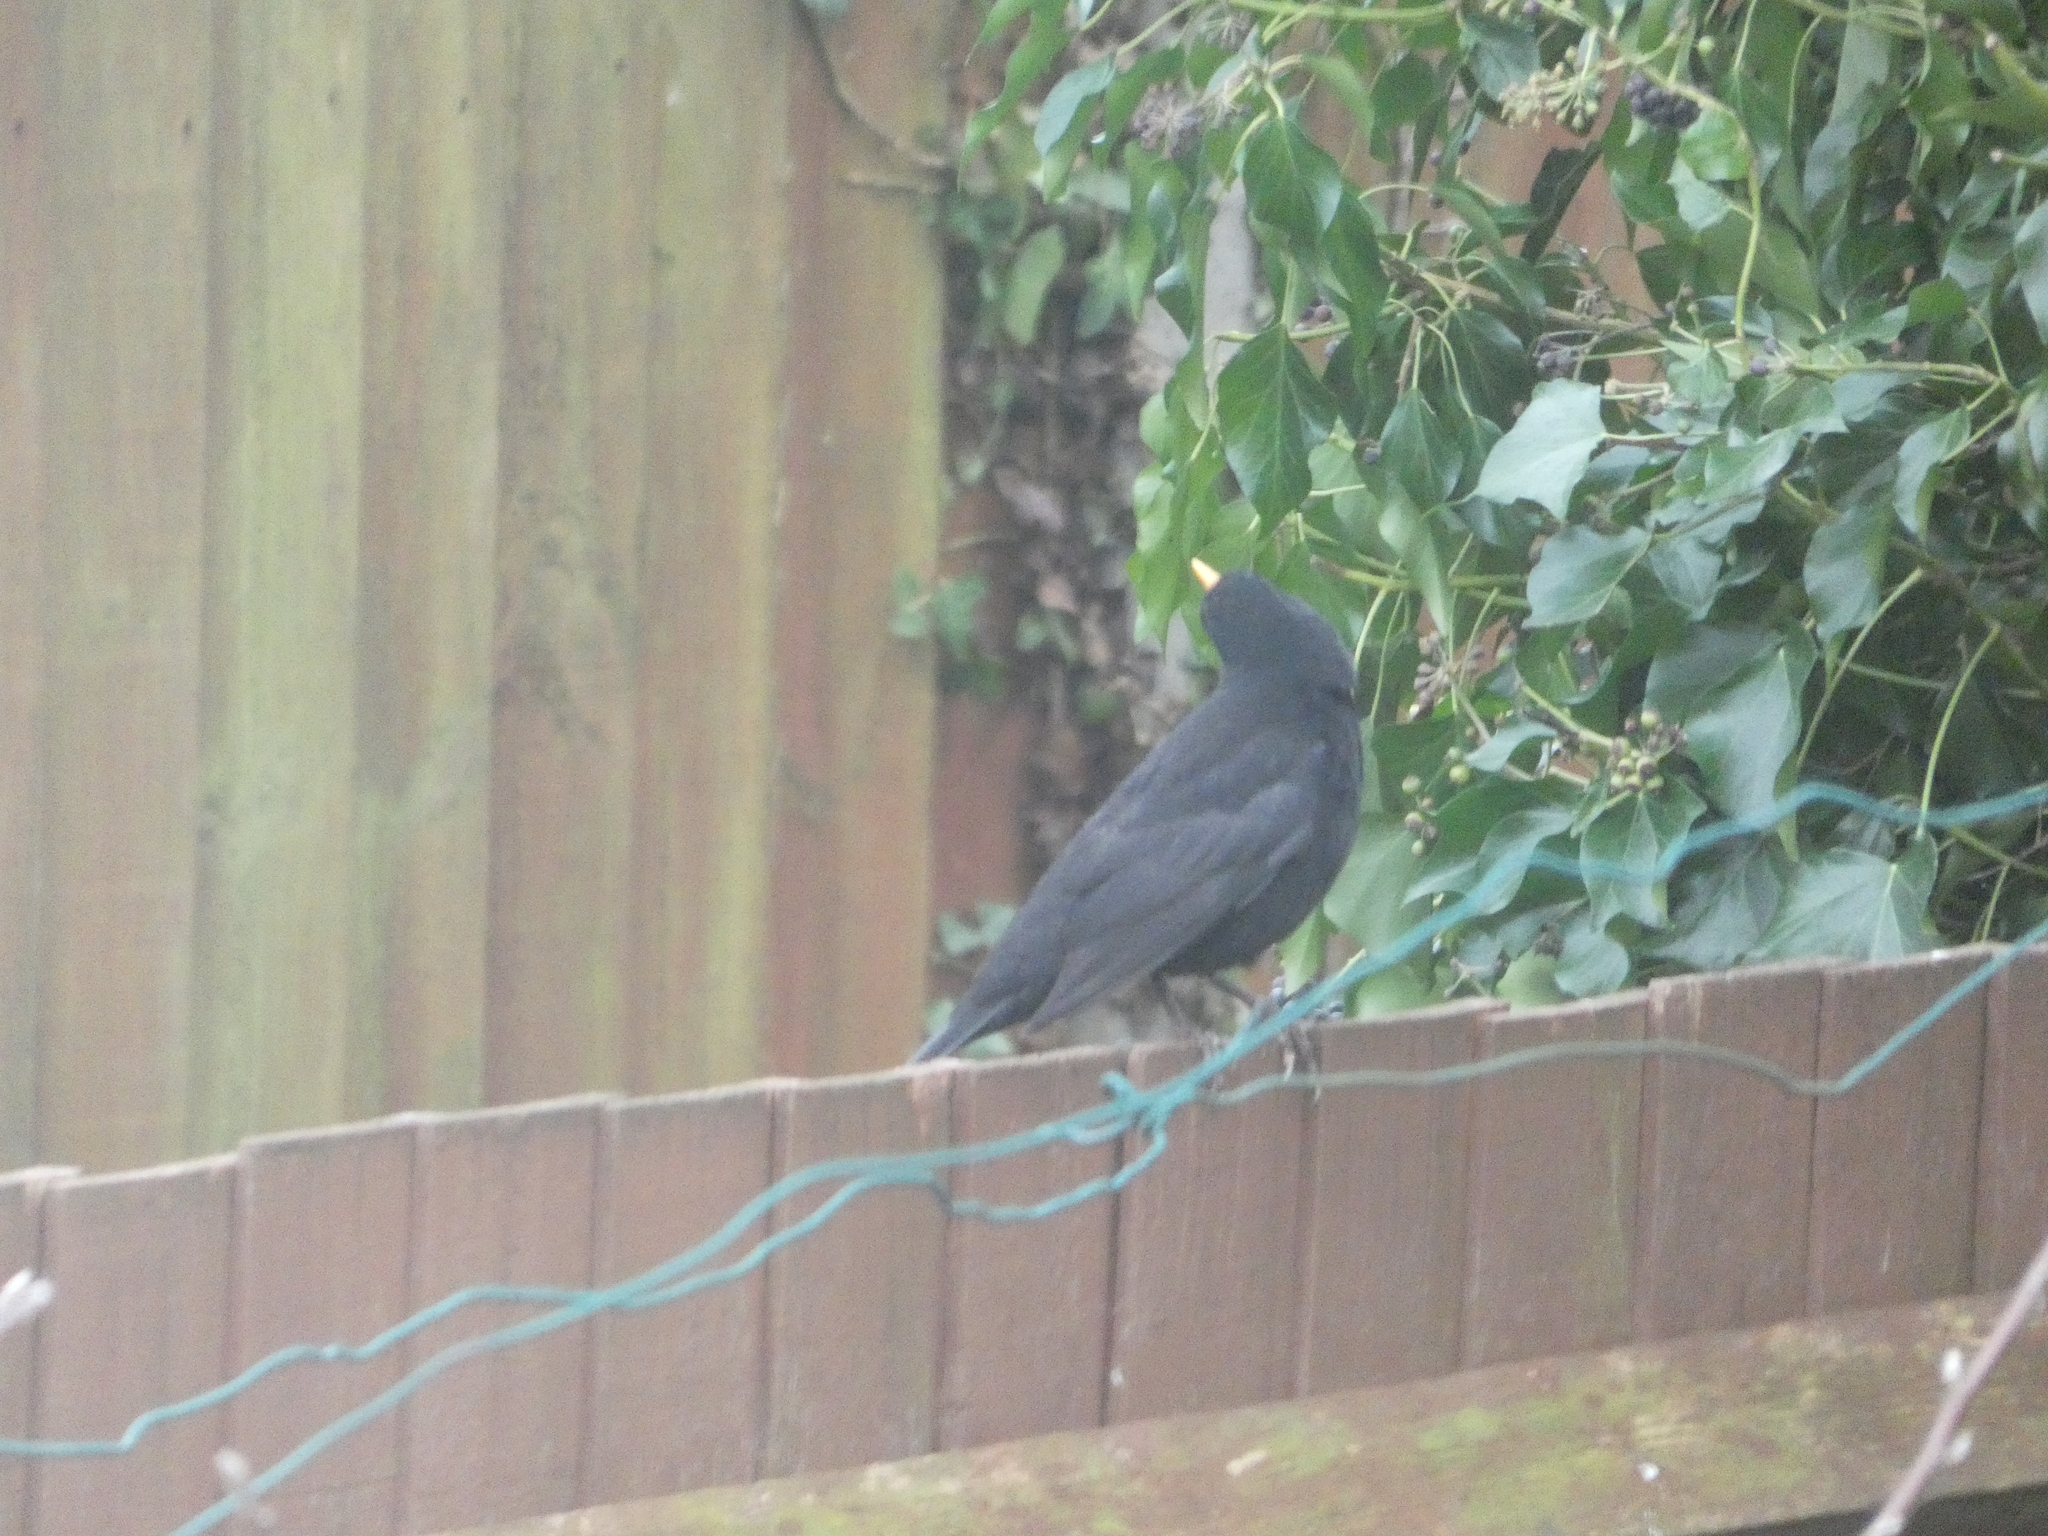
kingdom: Animalia
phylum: Chordata
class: Aves
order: Passeriformes
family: Turdidae
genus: Turdus
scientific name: Turdus merula
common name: Common blackbird
